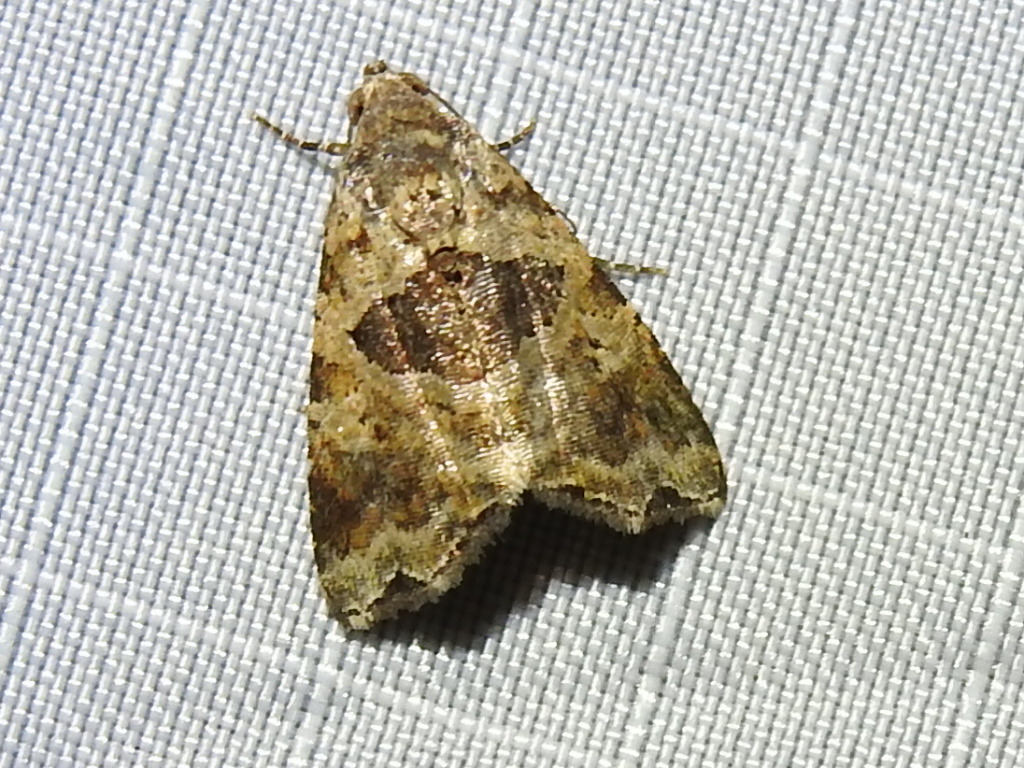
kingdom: Animalia
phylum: Arthropoda
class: Insecta
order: Lepidoptera
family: Noctuidae
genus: Cobubatha
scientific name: Cobubatha metaspilaris
